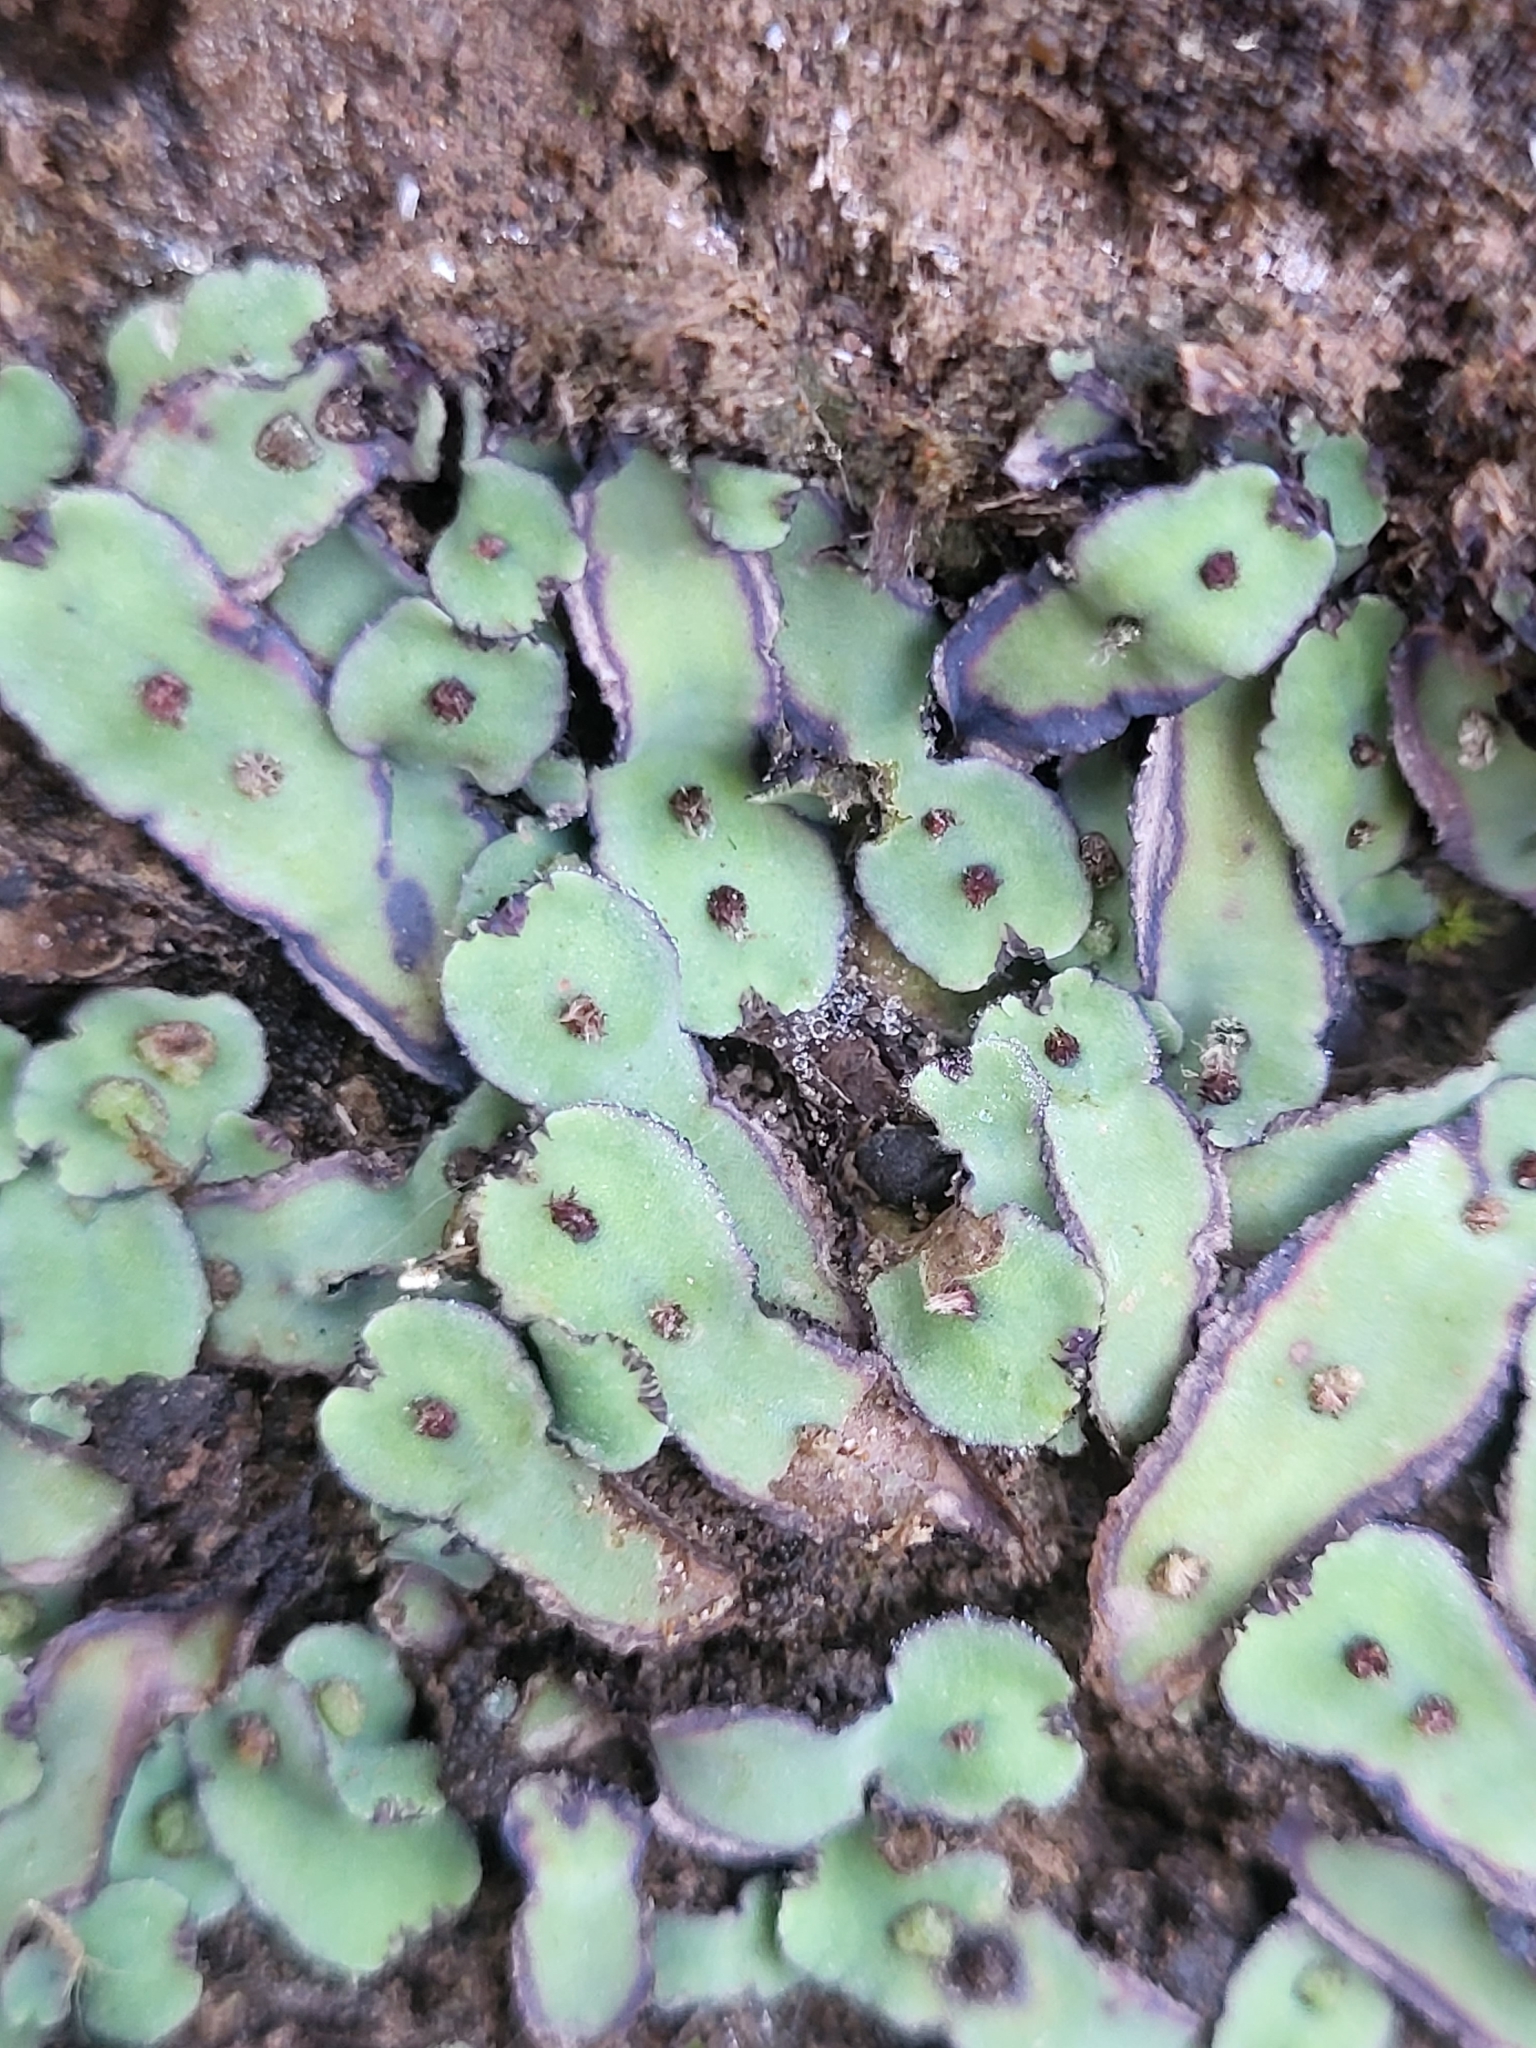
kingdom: Plantae
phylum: Marchantiophyta
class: Marchantiopsida
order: Marchantiales
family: Aytoniaceae
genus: Plagiochasma
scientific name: Plagiochasma rupestre
